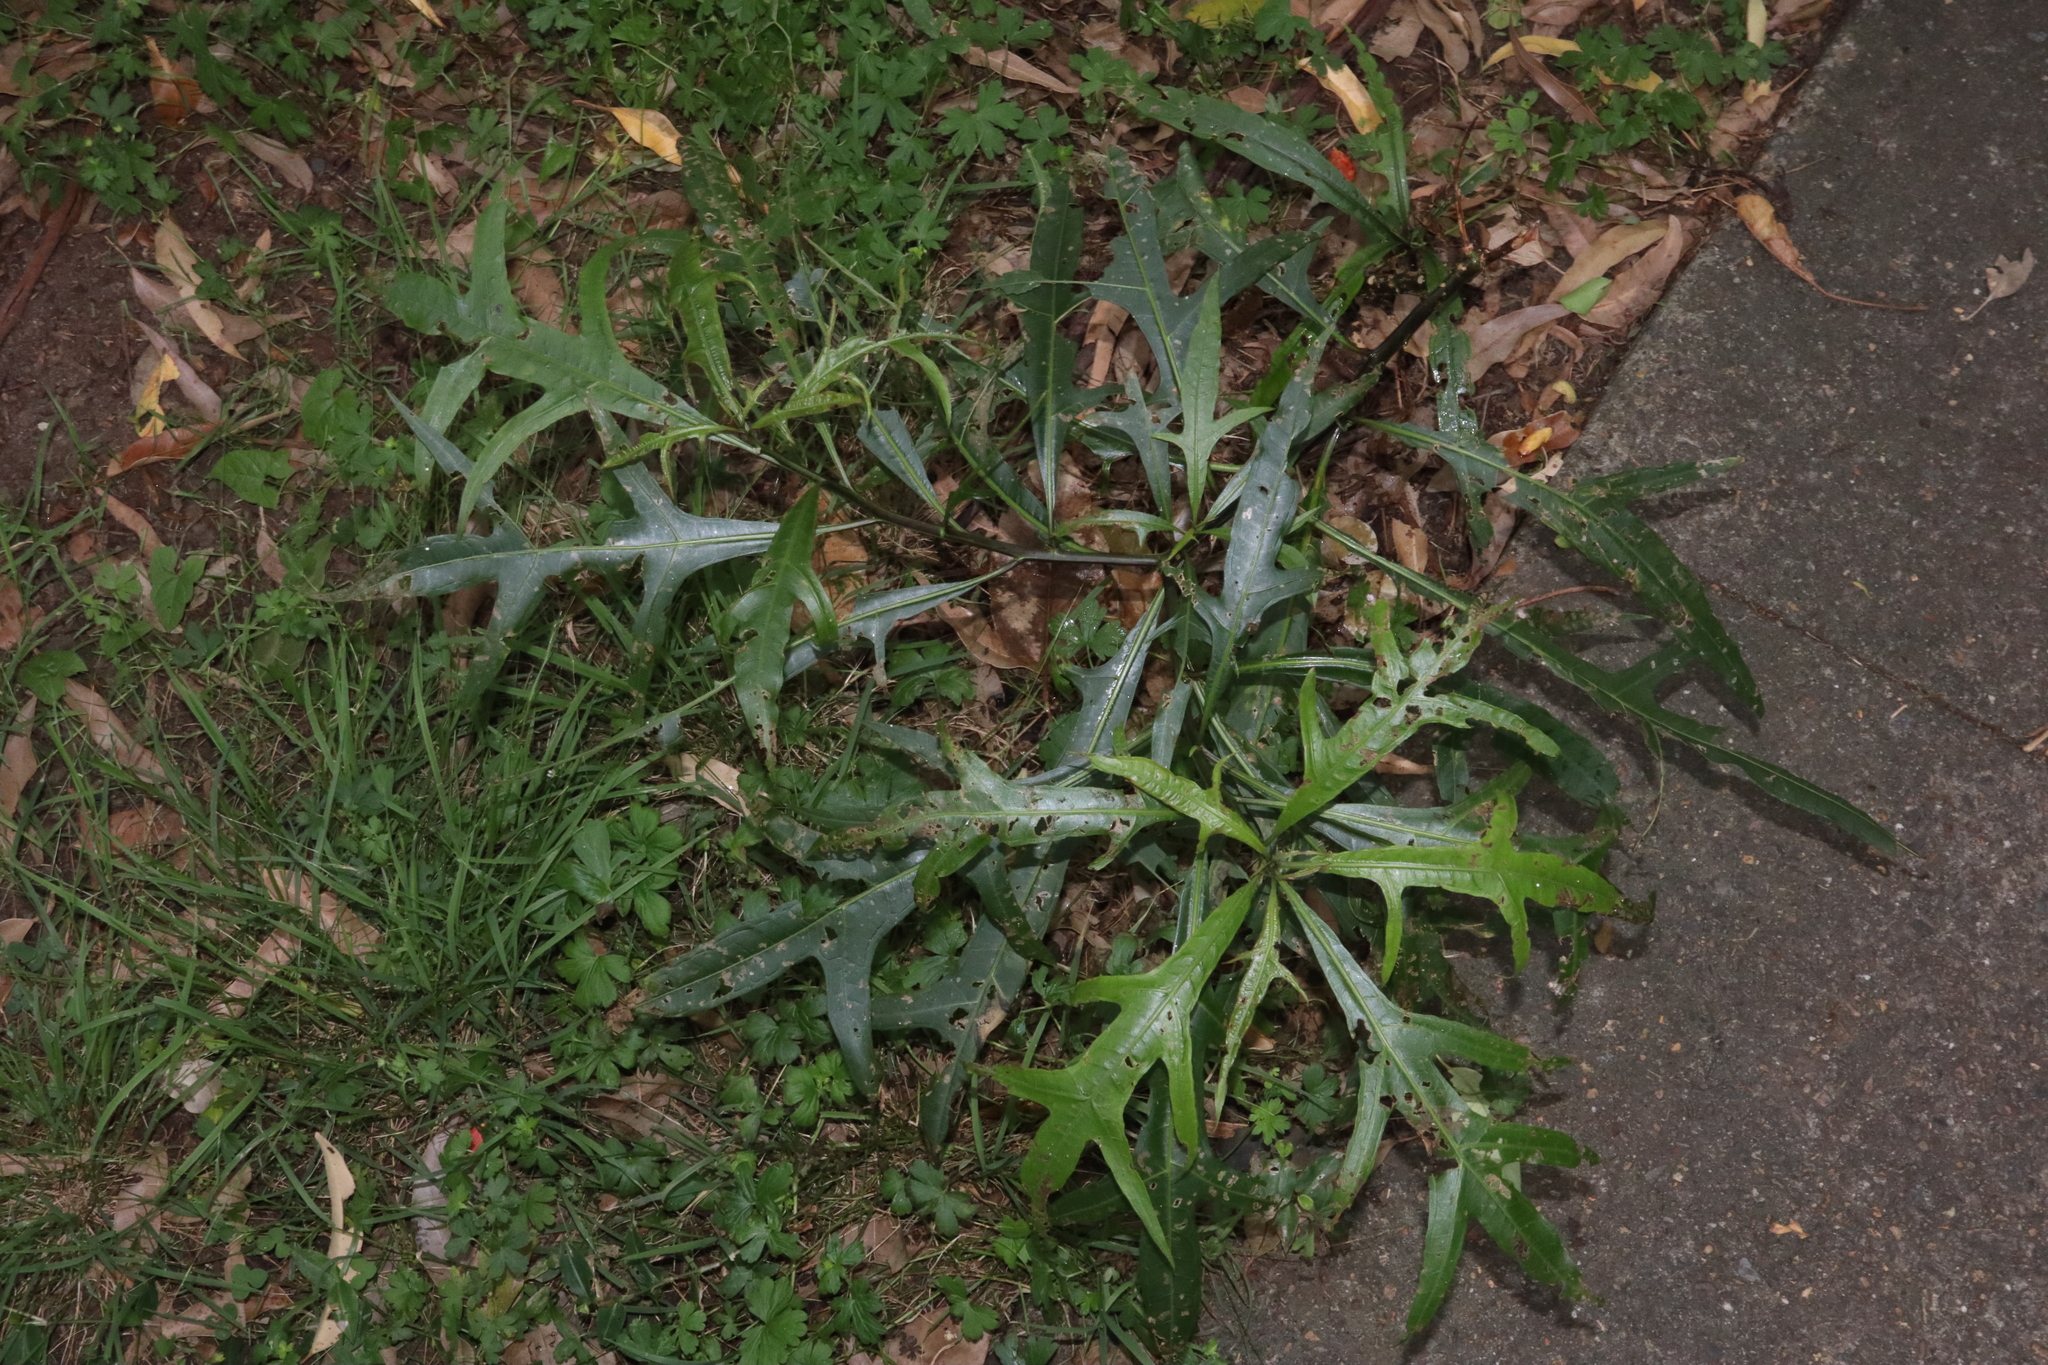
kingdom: Plantae
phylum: Tracheophyta
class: Magnoliopsida
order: Solanales
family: Solanaceae
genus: Solanum
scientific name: Solanum aviculare
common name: New zealand nightshade
